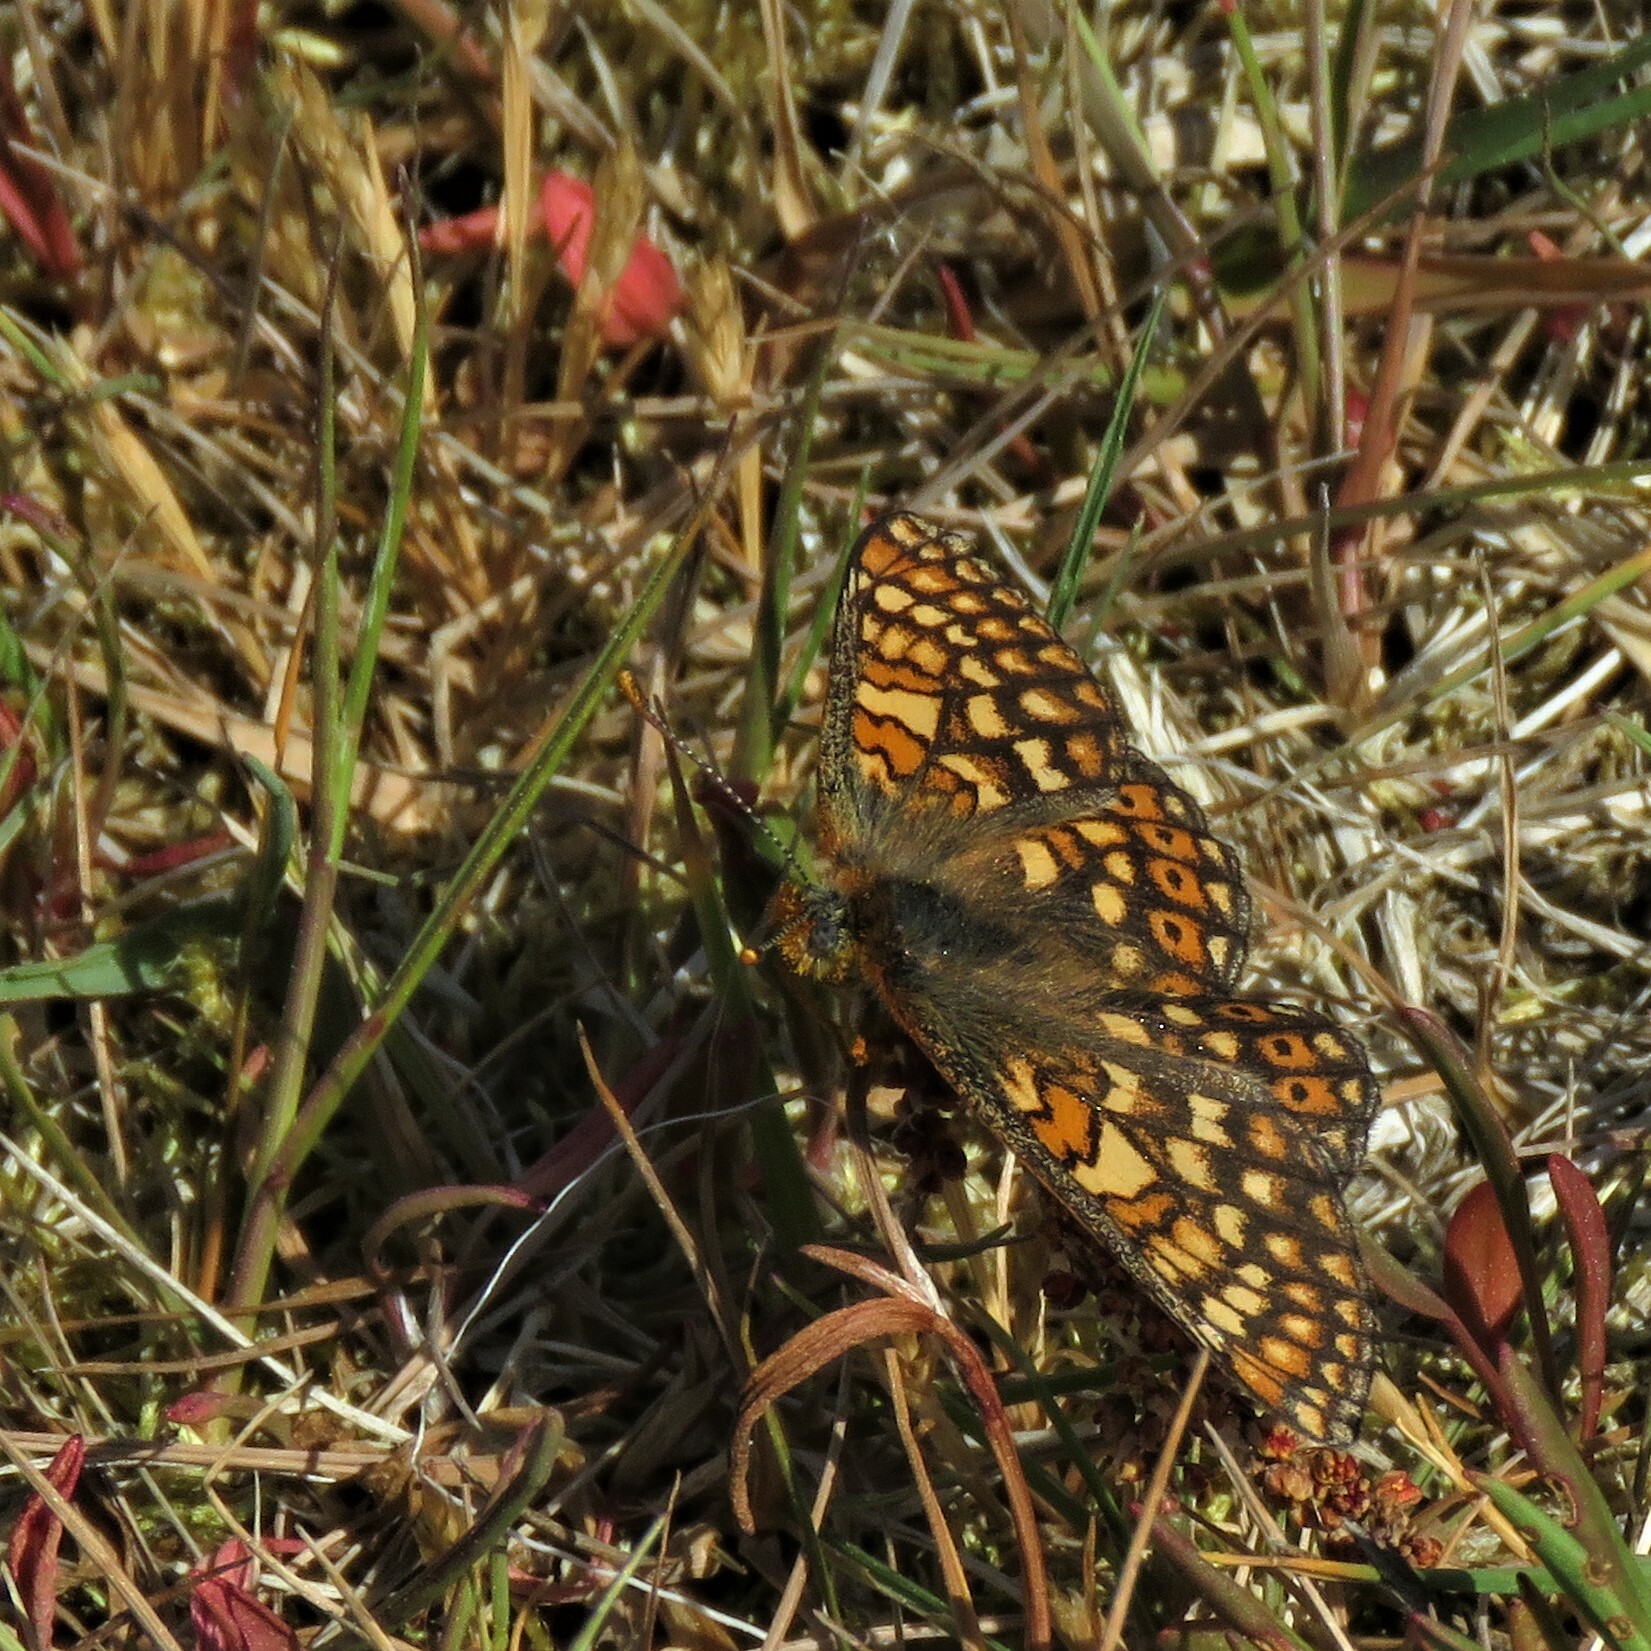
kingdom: Animalia
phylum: Arthropoda
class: Insecta
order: Lepidoptera
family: Nymphalidae
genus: Euphydryas
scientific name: Euphydryas aurinia
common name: Marsh fritillary
